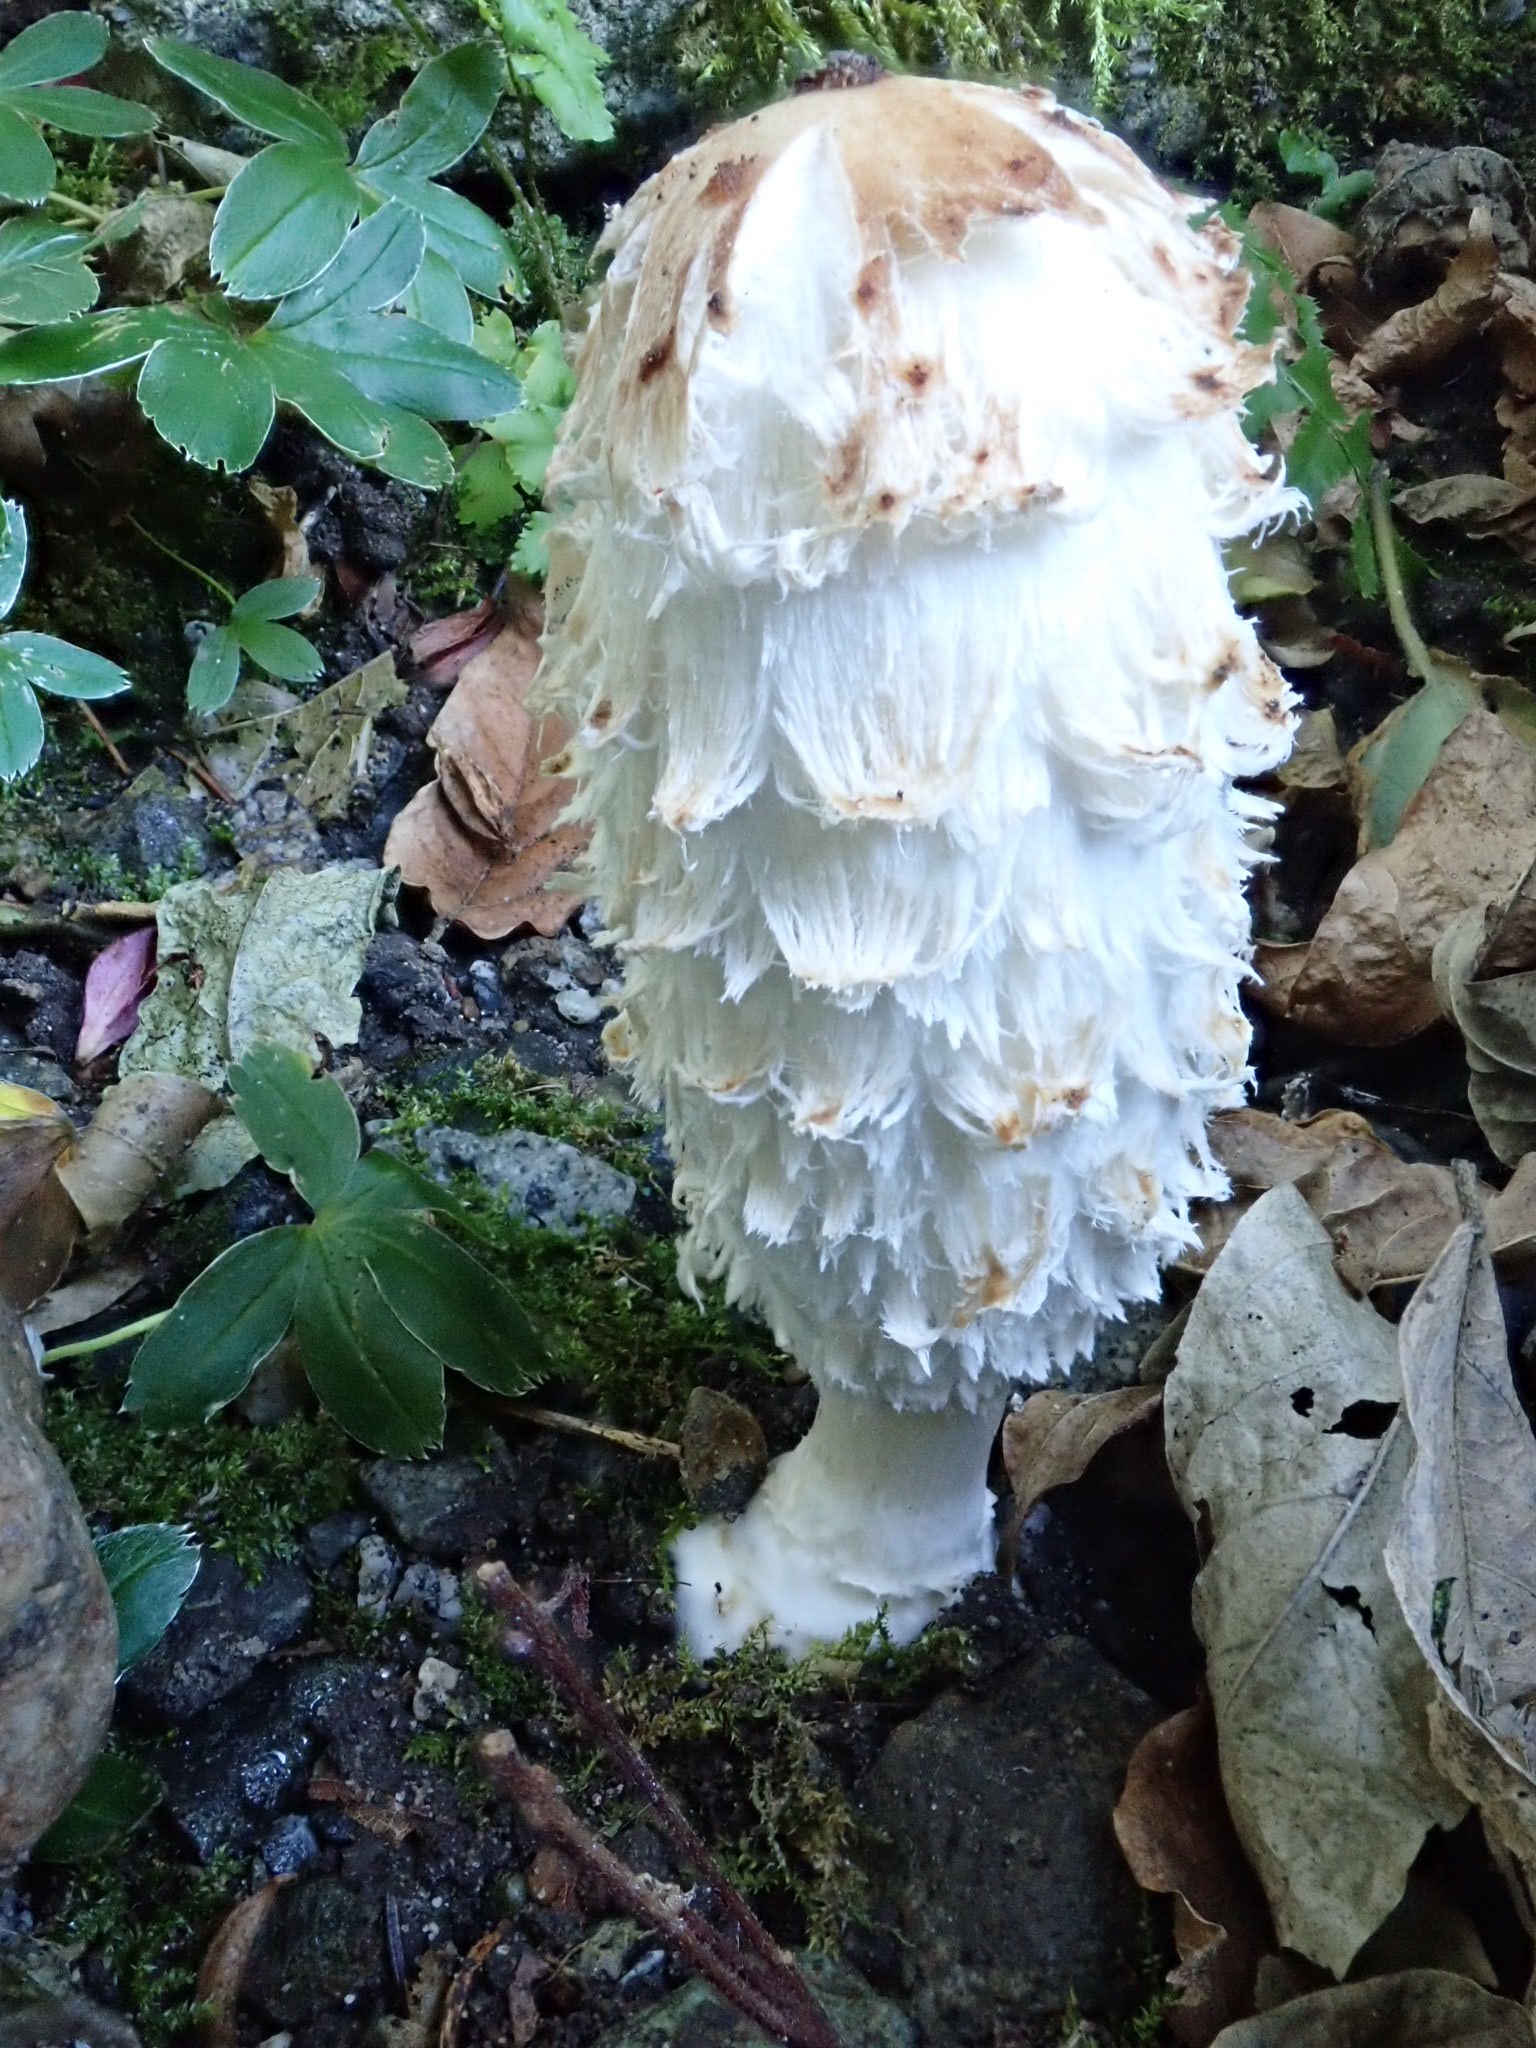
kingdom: Fungi
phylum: Basidiomycota
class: Agaricomycetes
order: Agaricales
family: Agaricaceae
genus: Coprinus
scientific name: Coprinus comatus
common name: Lawyer's wig
